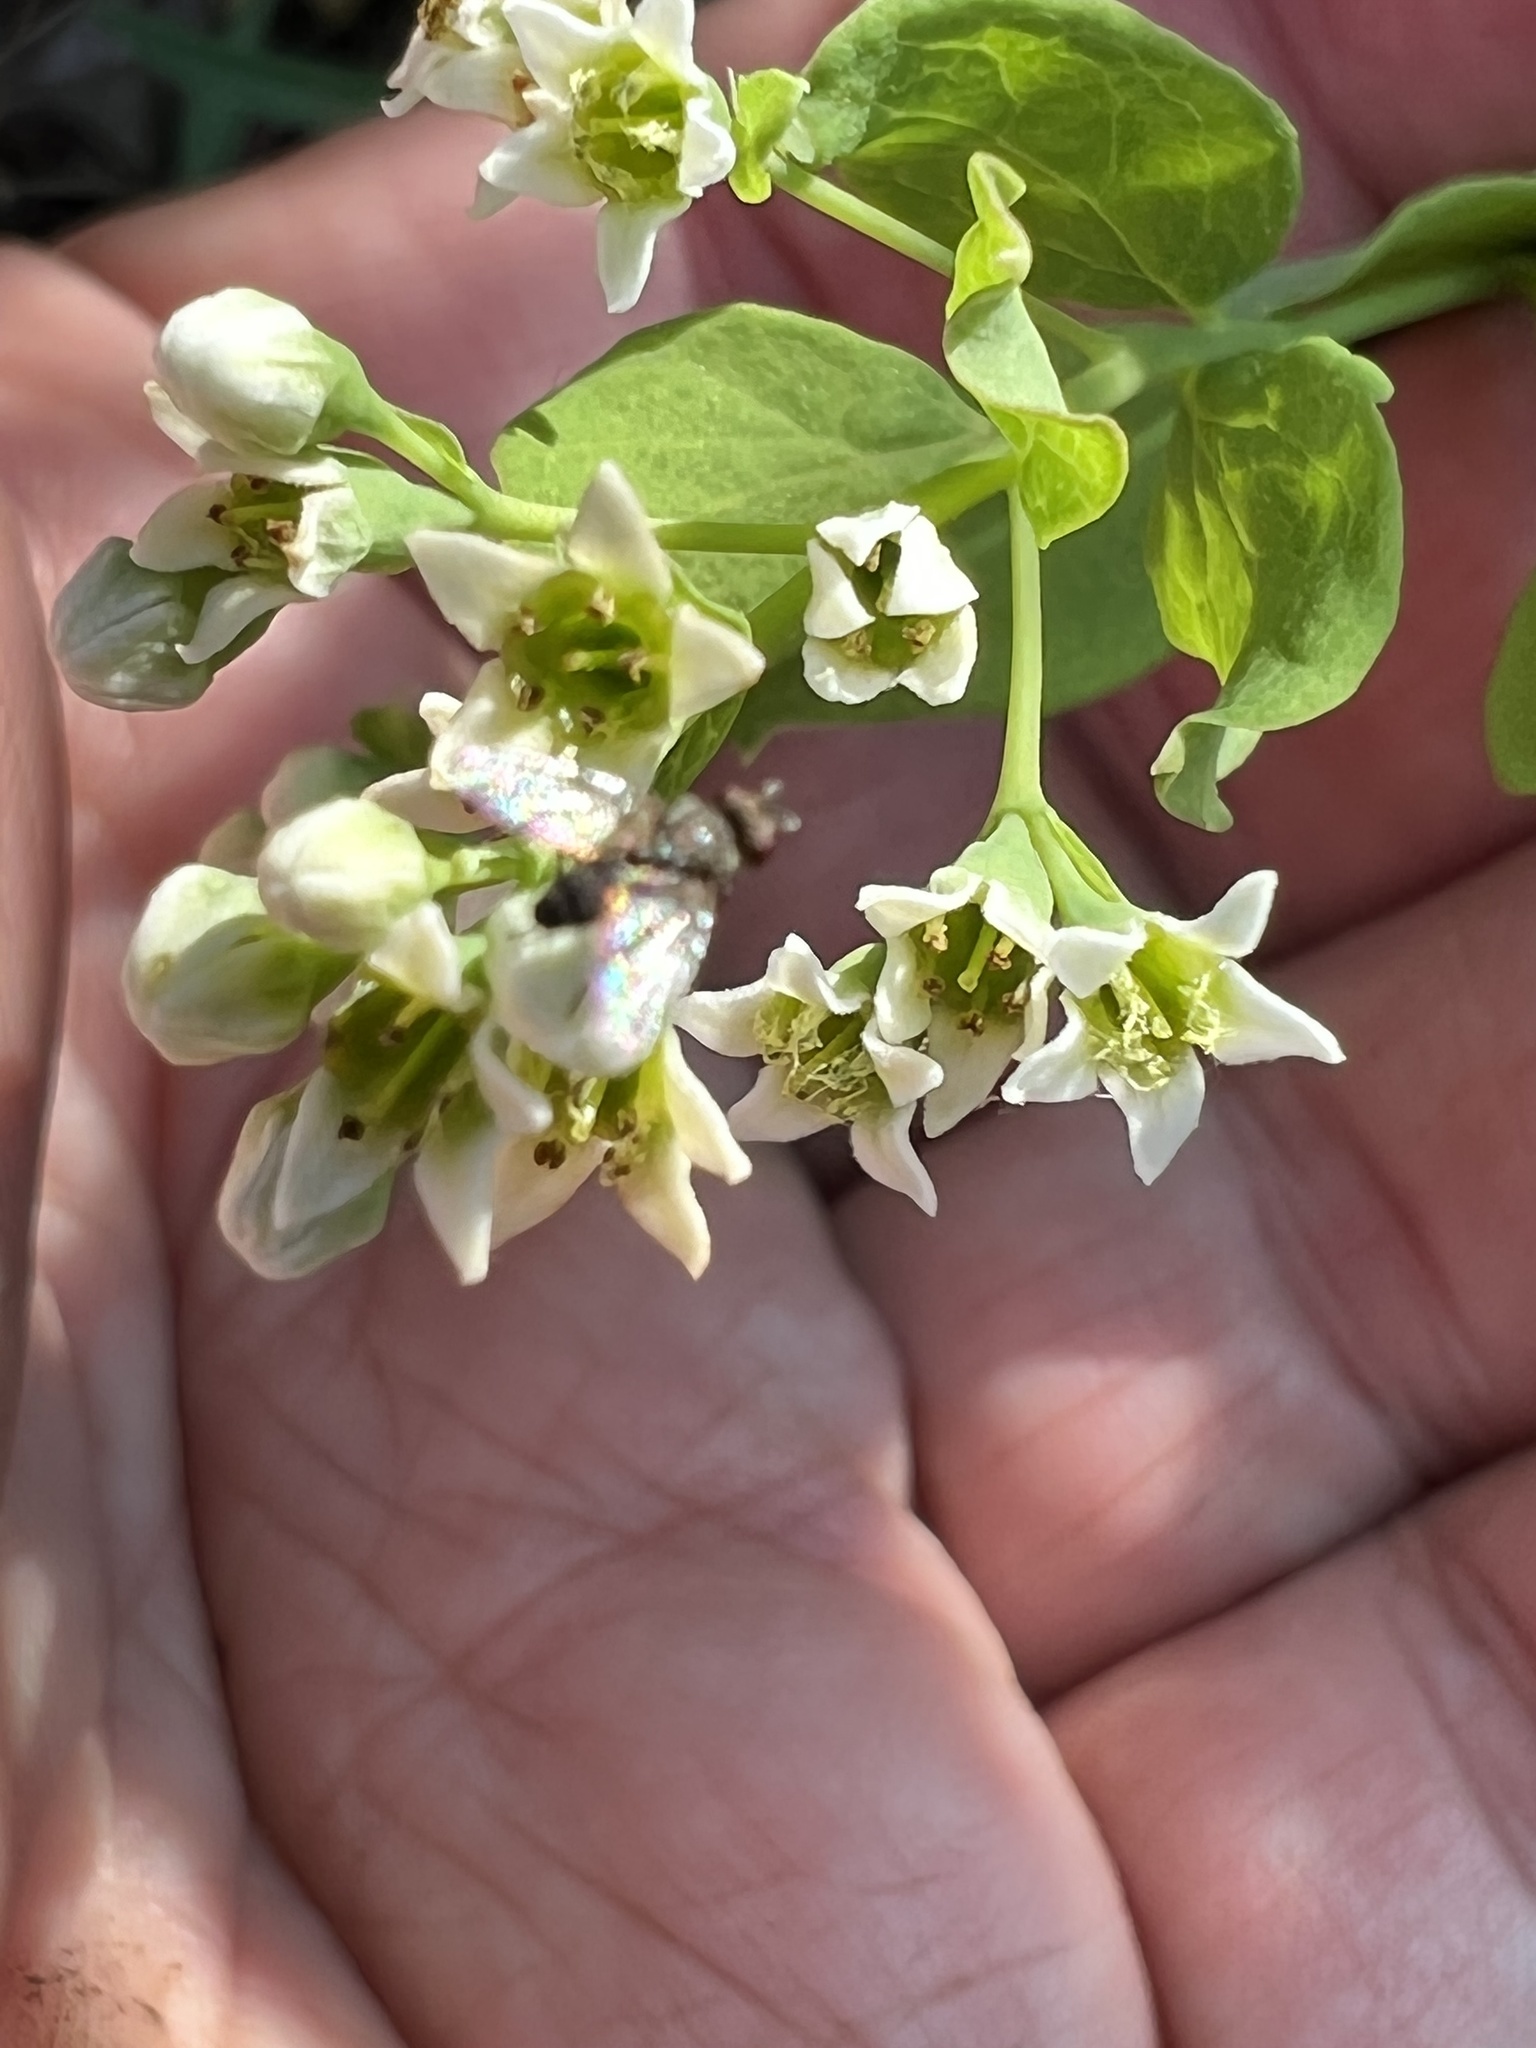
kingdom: Plantae
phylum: Tracheophyta
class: Magnoliopsida
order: Santalales
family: Comandraceae
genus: Comandra
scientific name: Comandra umbellata
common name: Bastard toadflax
